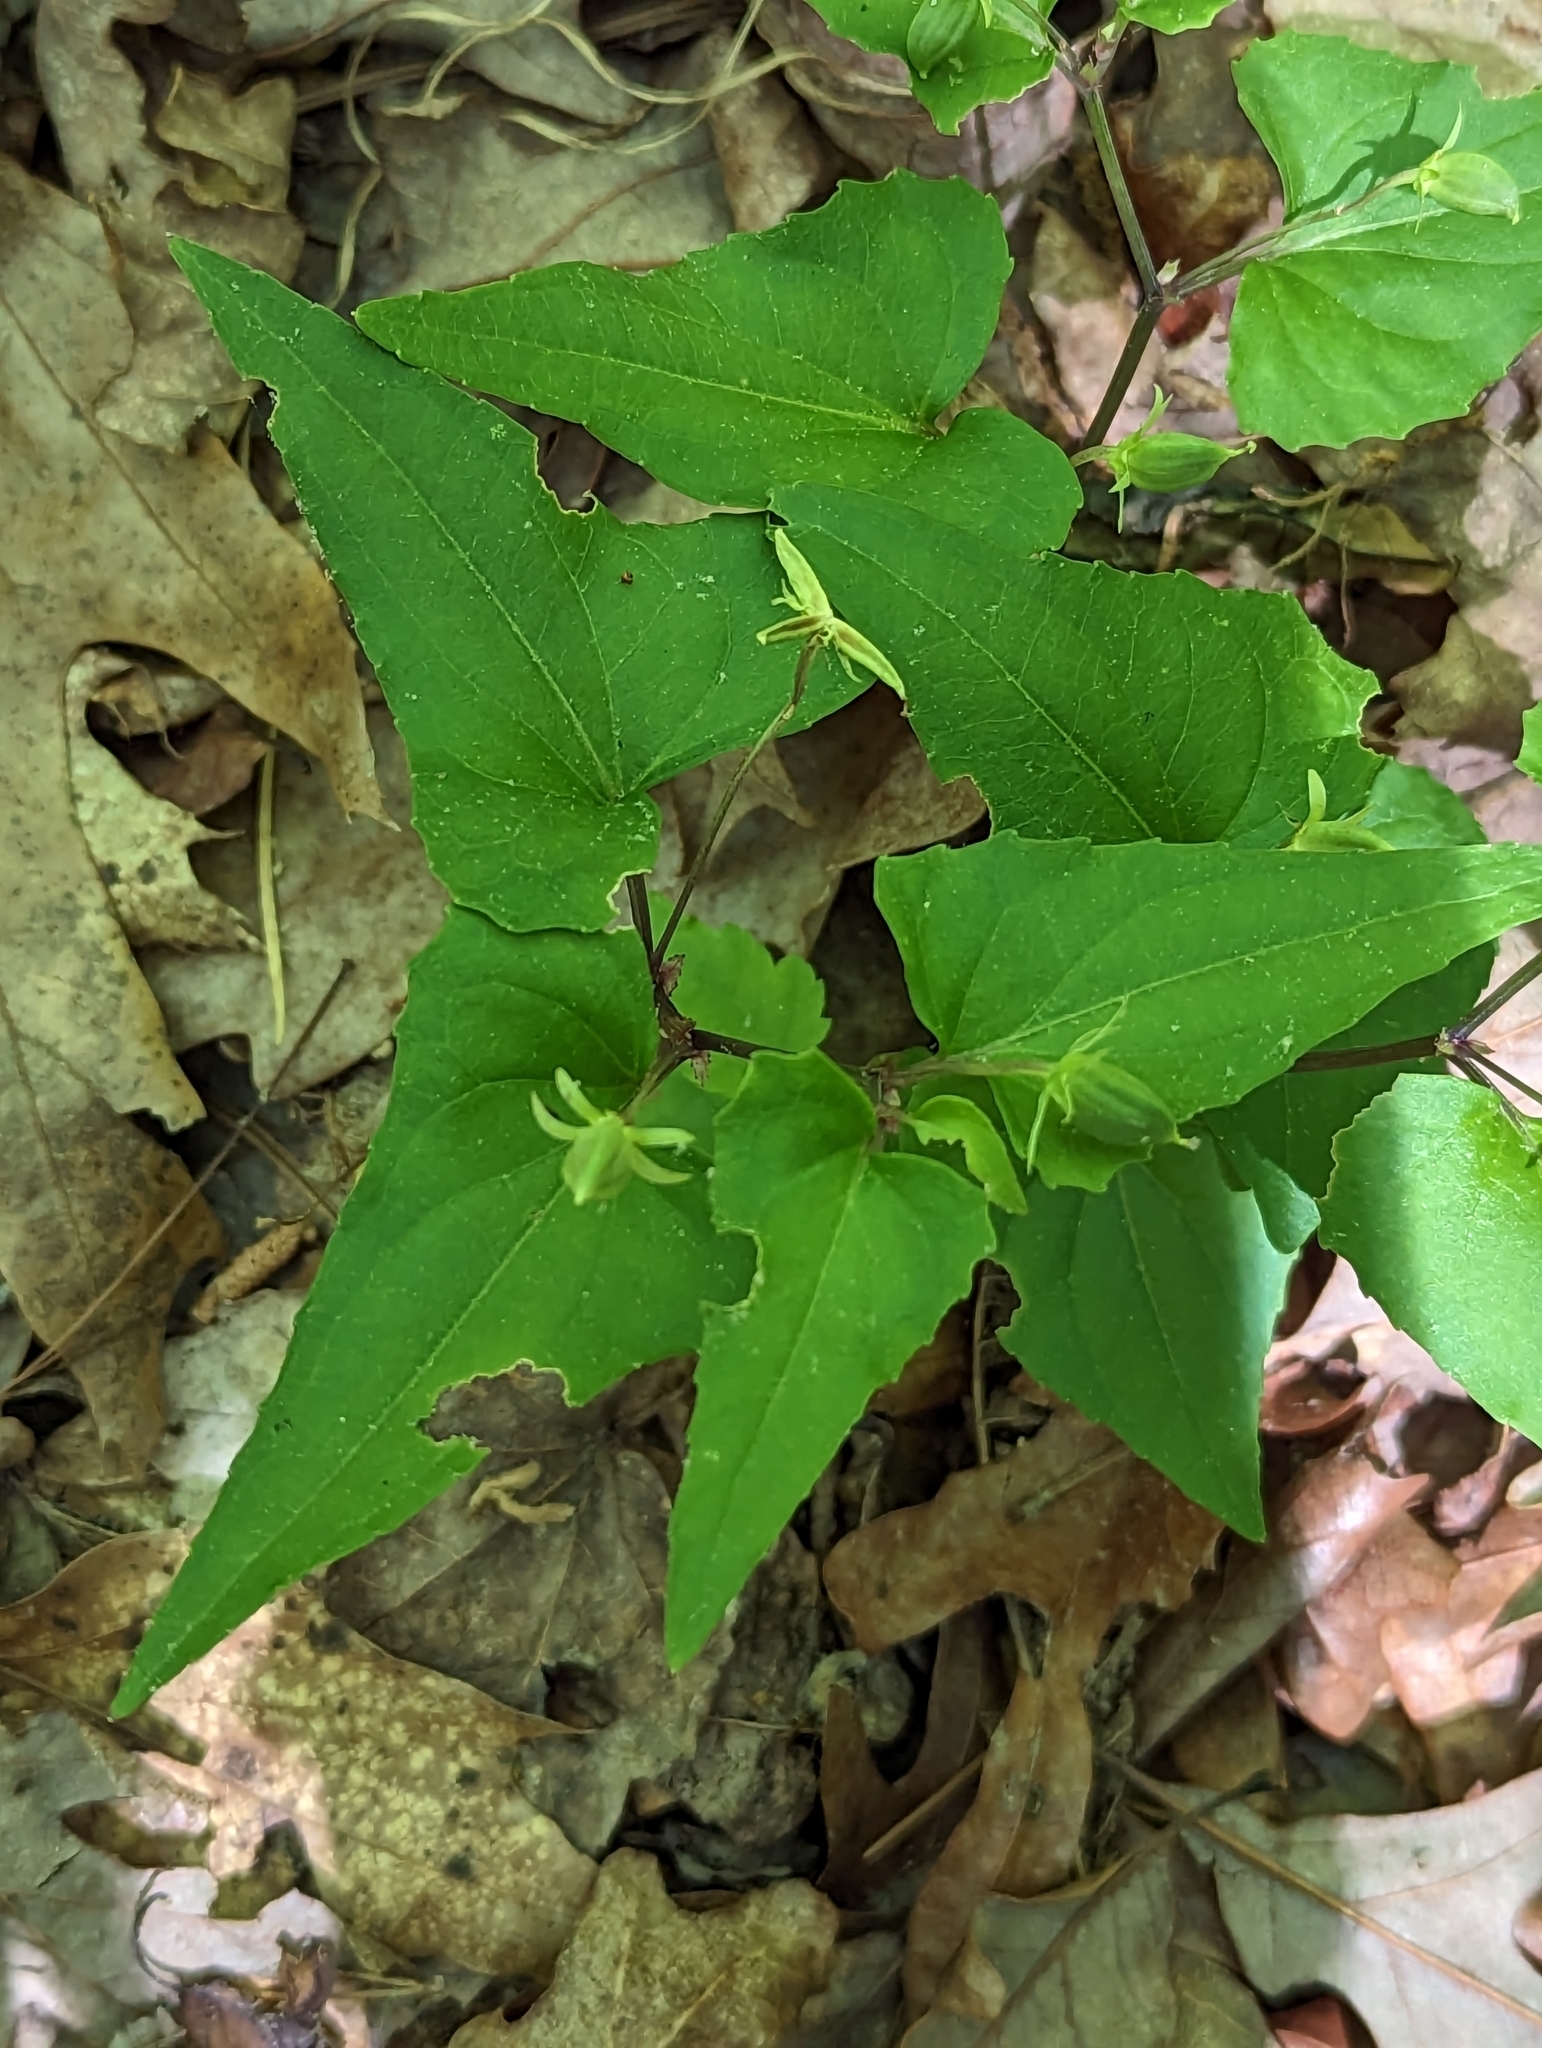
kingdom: Plantae
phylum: Tracheophyta
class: Magnoliopsida
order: Malpighiales
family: Violaceae
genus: Viola
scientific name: Viola hastata
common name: Spear-leaf violet
